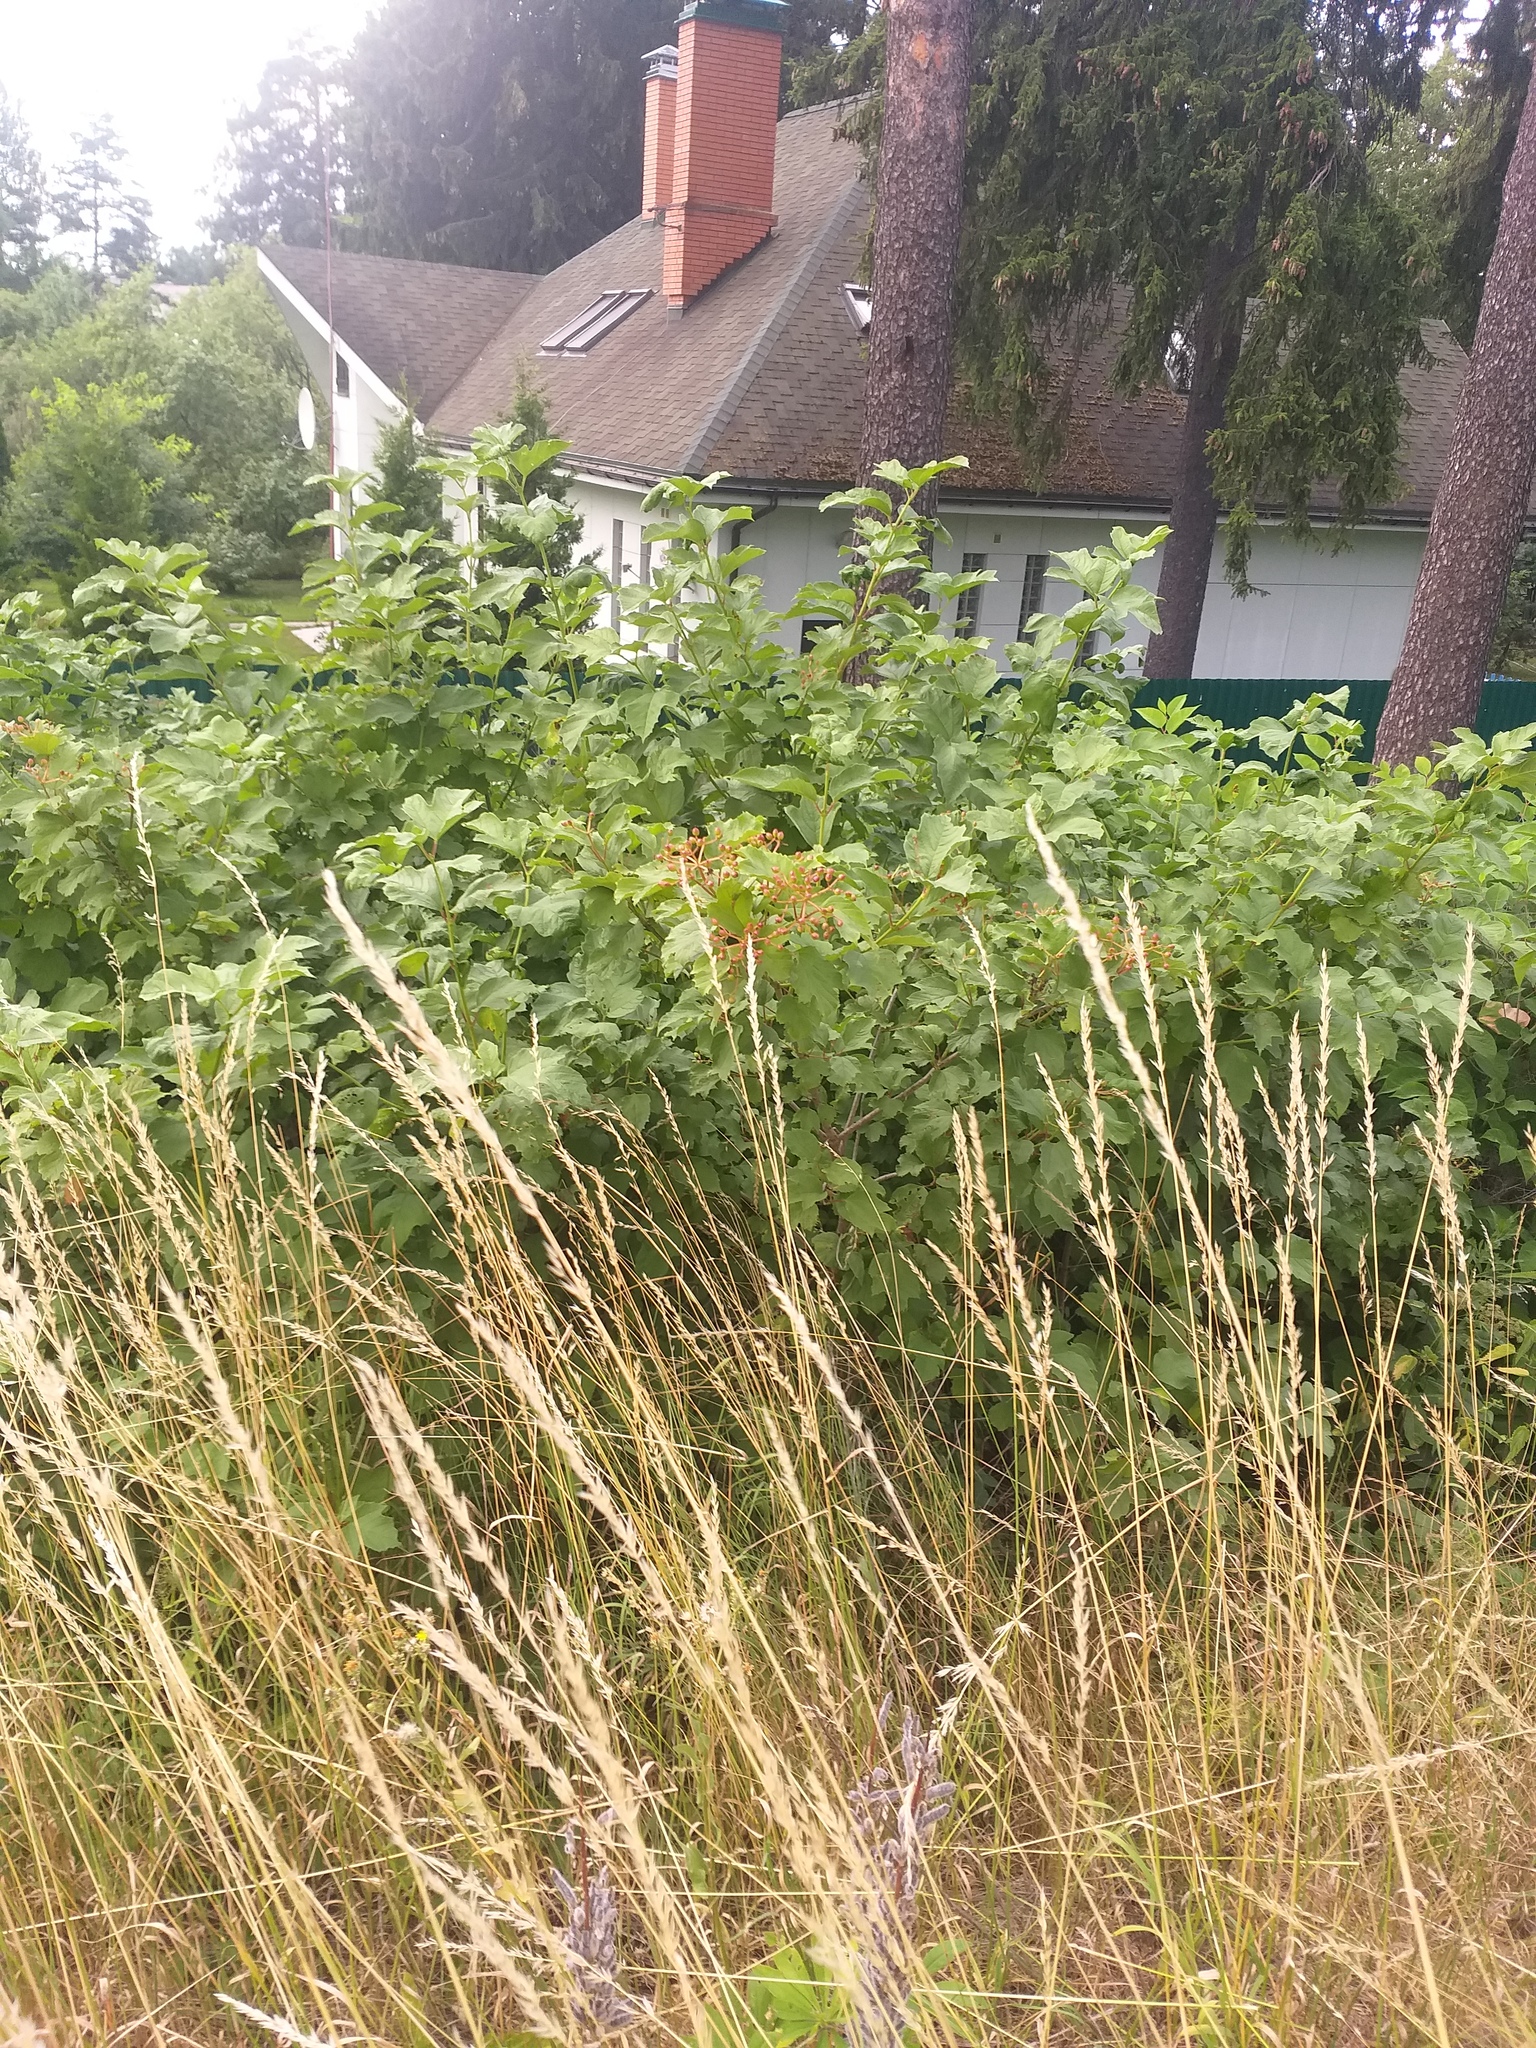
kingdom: Plantae
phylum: Tracheophyta
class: Magnoliopsida
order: Dipsacales
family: Viburnaceae
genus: Viburnum
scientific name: Viburnum opulus
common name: Guelder-rose
